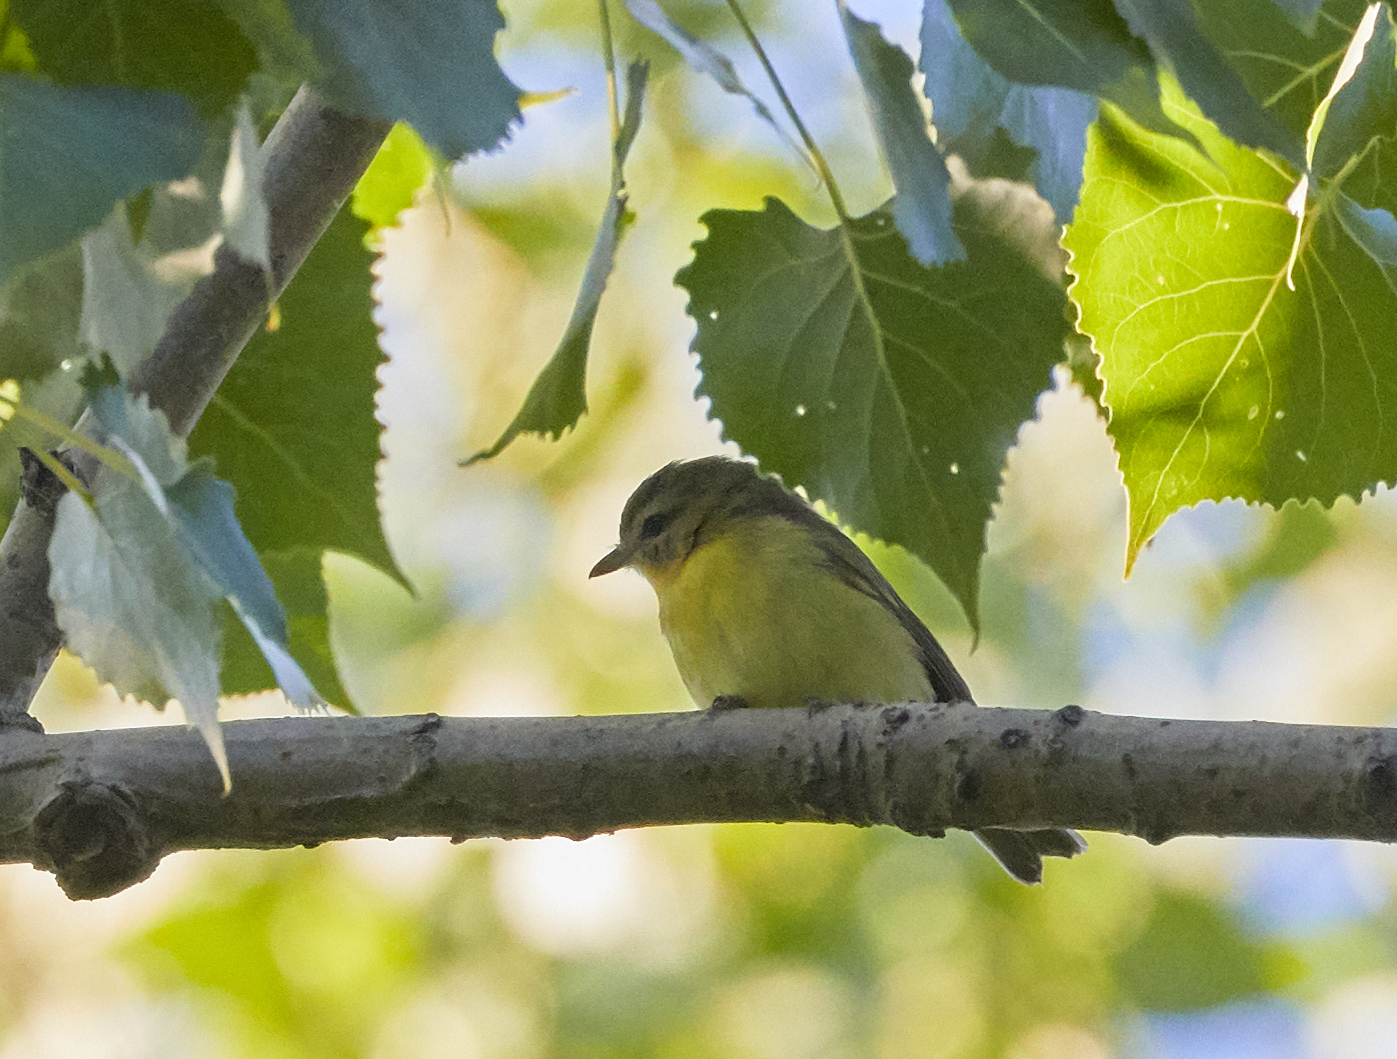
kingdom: Animalia
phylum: Chordata
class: Aves
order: Passeriformes
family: Vireonidae
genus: Vireo
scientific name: Vireo philadelphicus
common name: Philadelphia vireo
